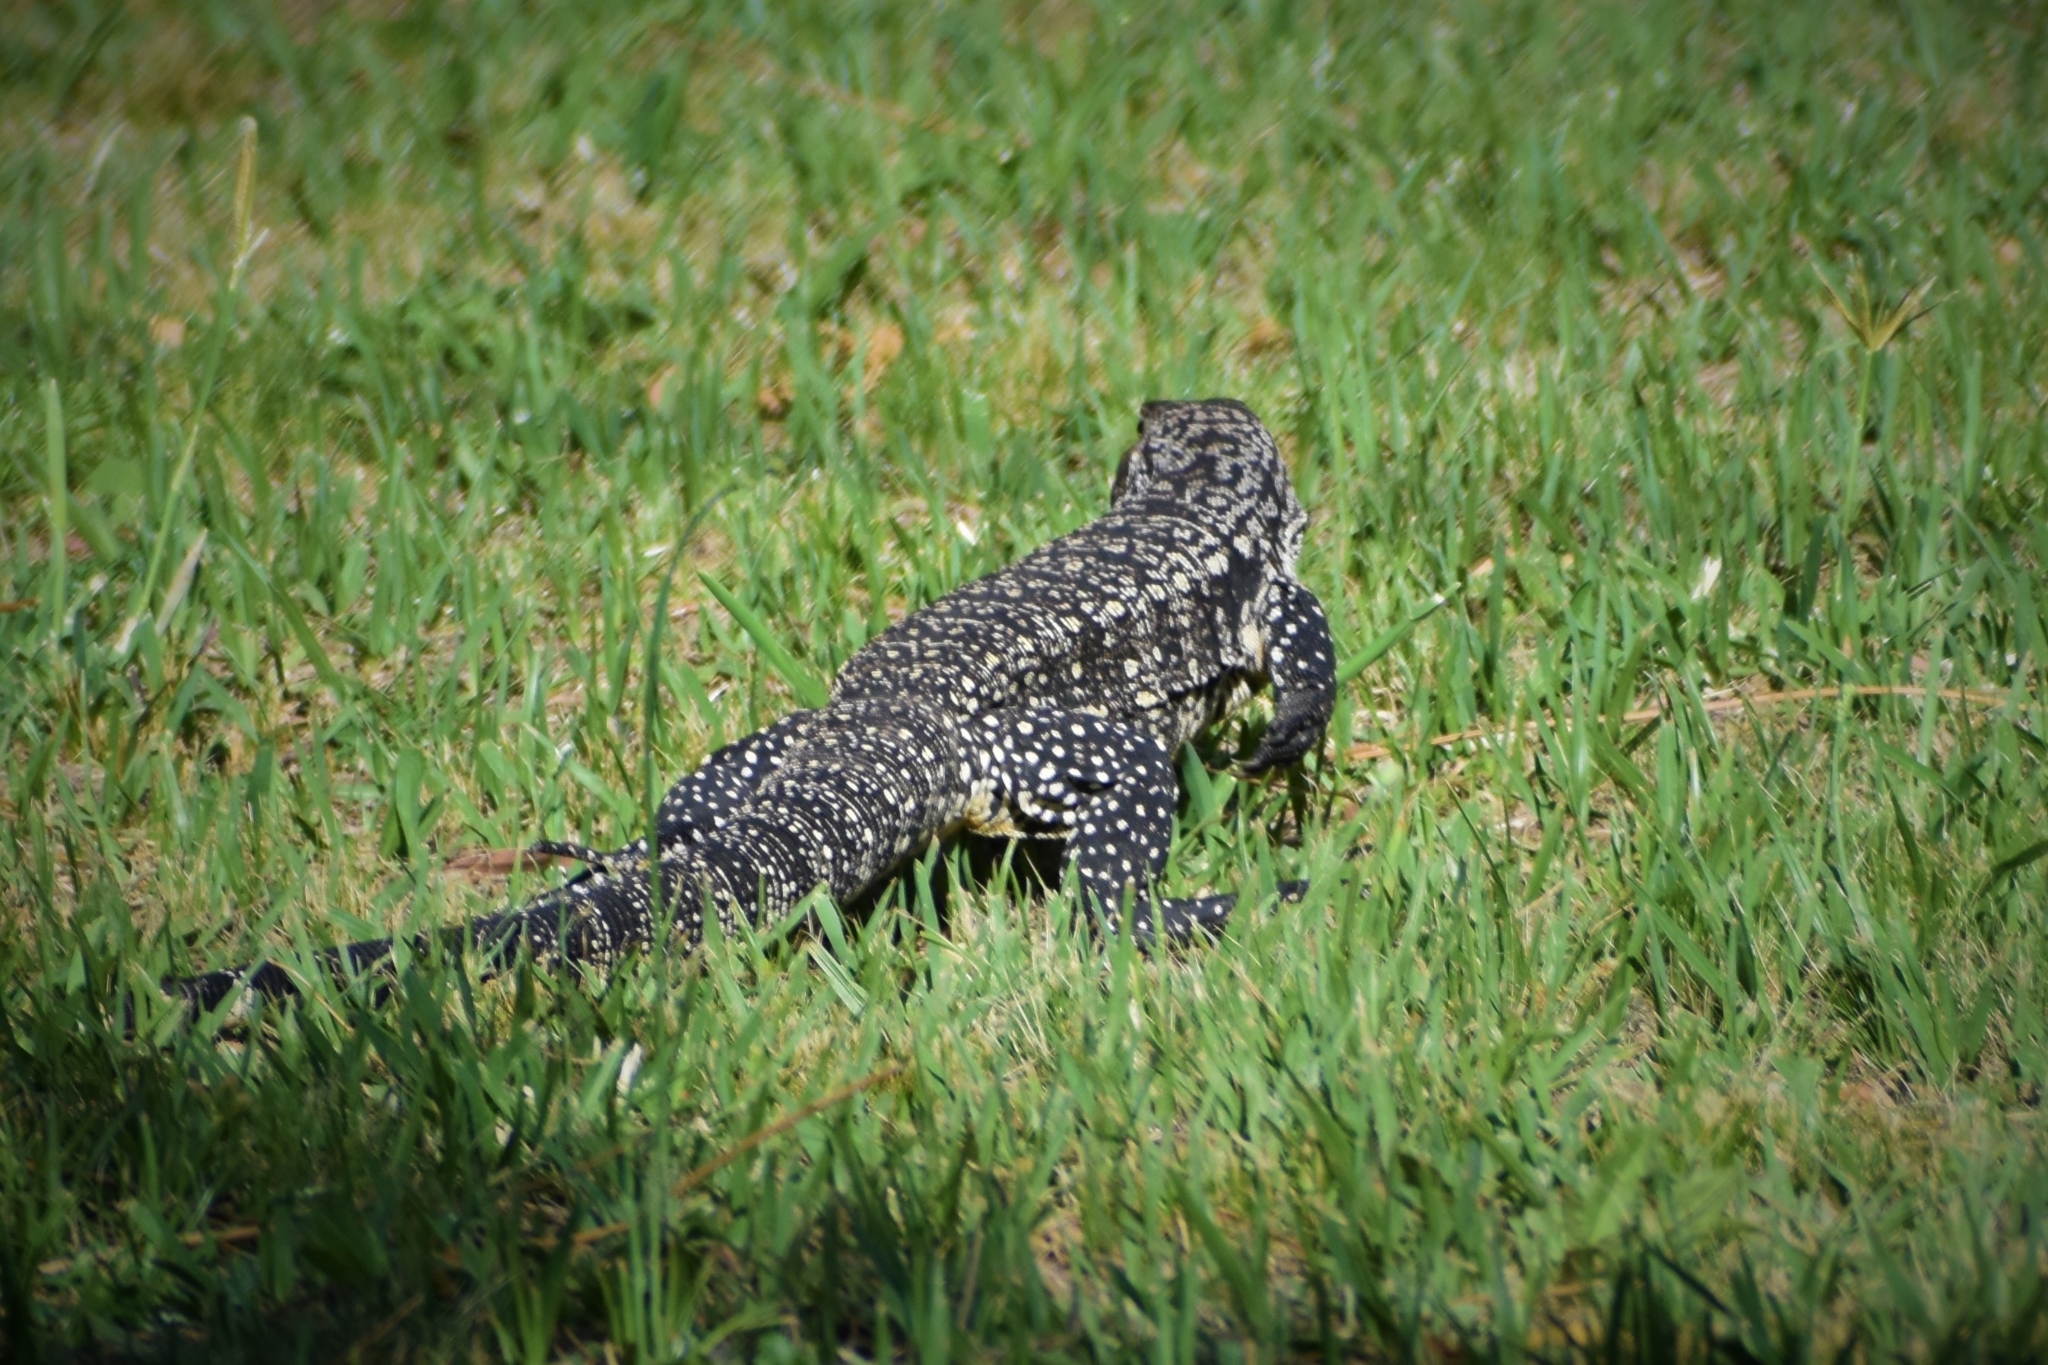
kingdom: Animalia
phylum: Chordata
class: Squamata
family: Teiidae
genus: Salvator
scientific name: Salvator merianae
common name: Argentine black and white tegu
